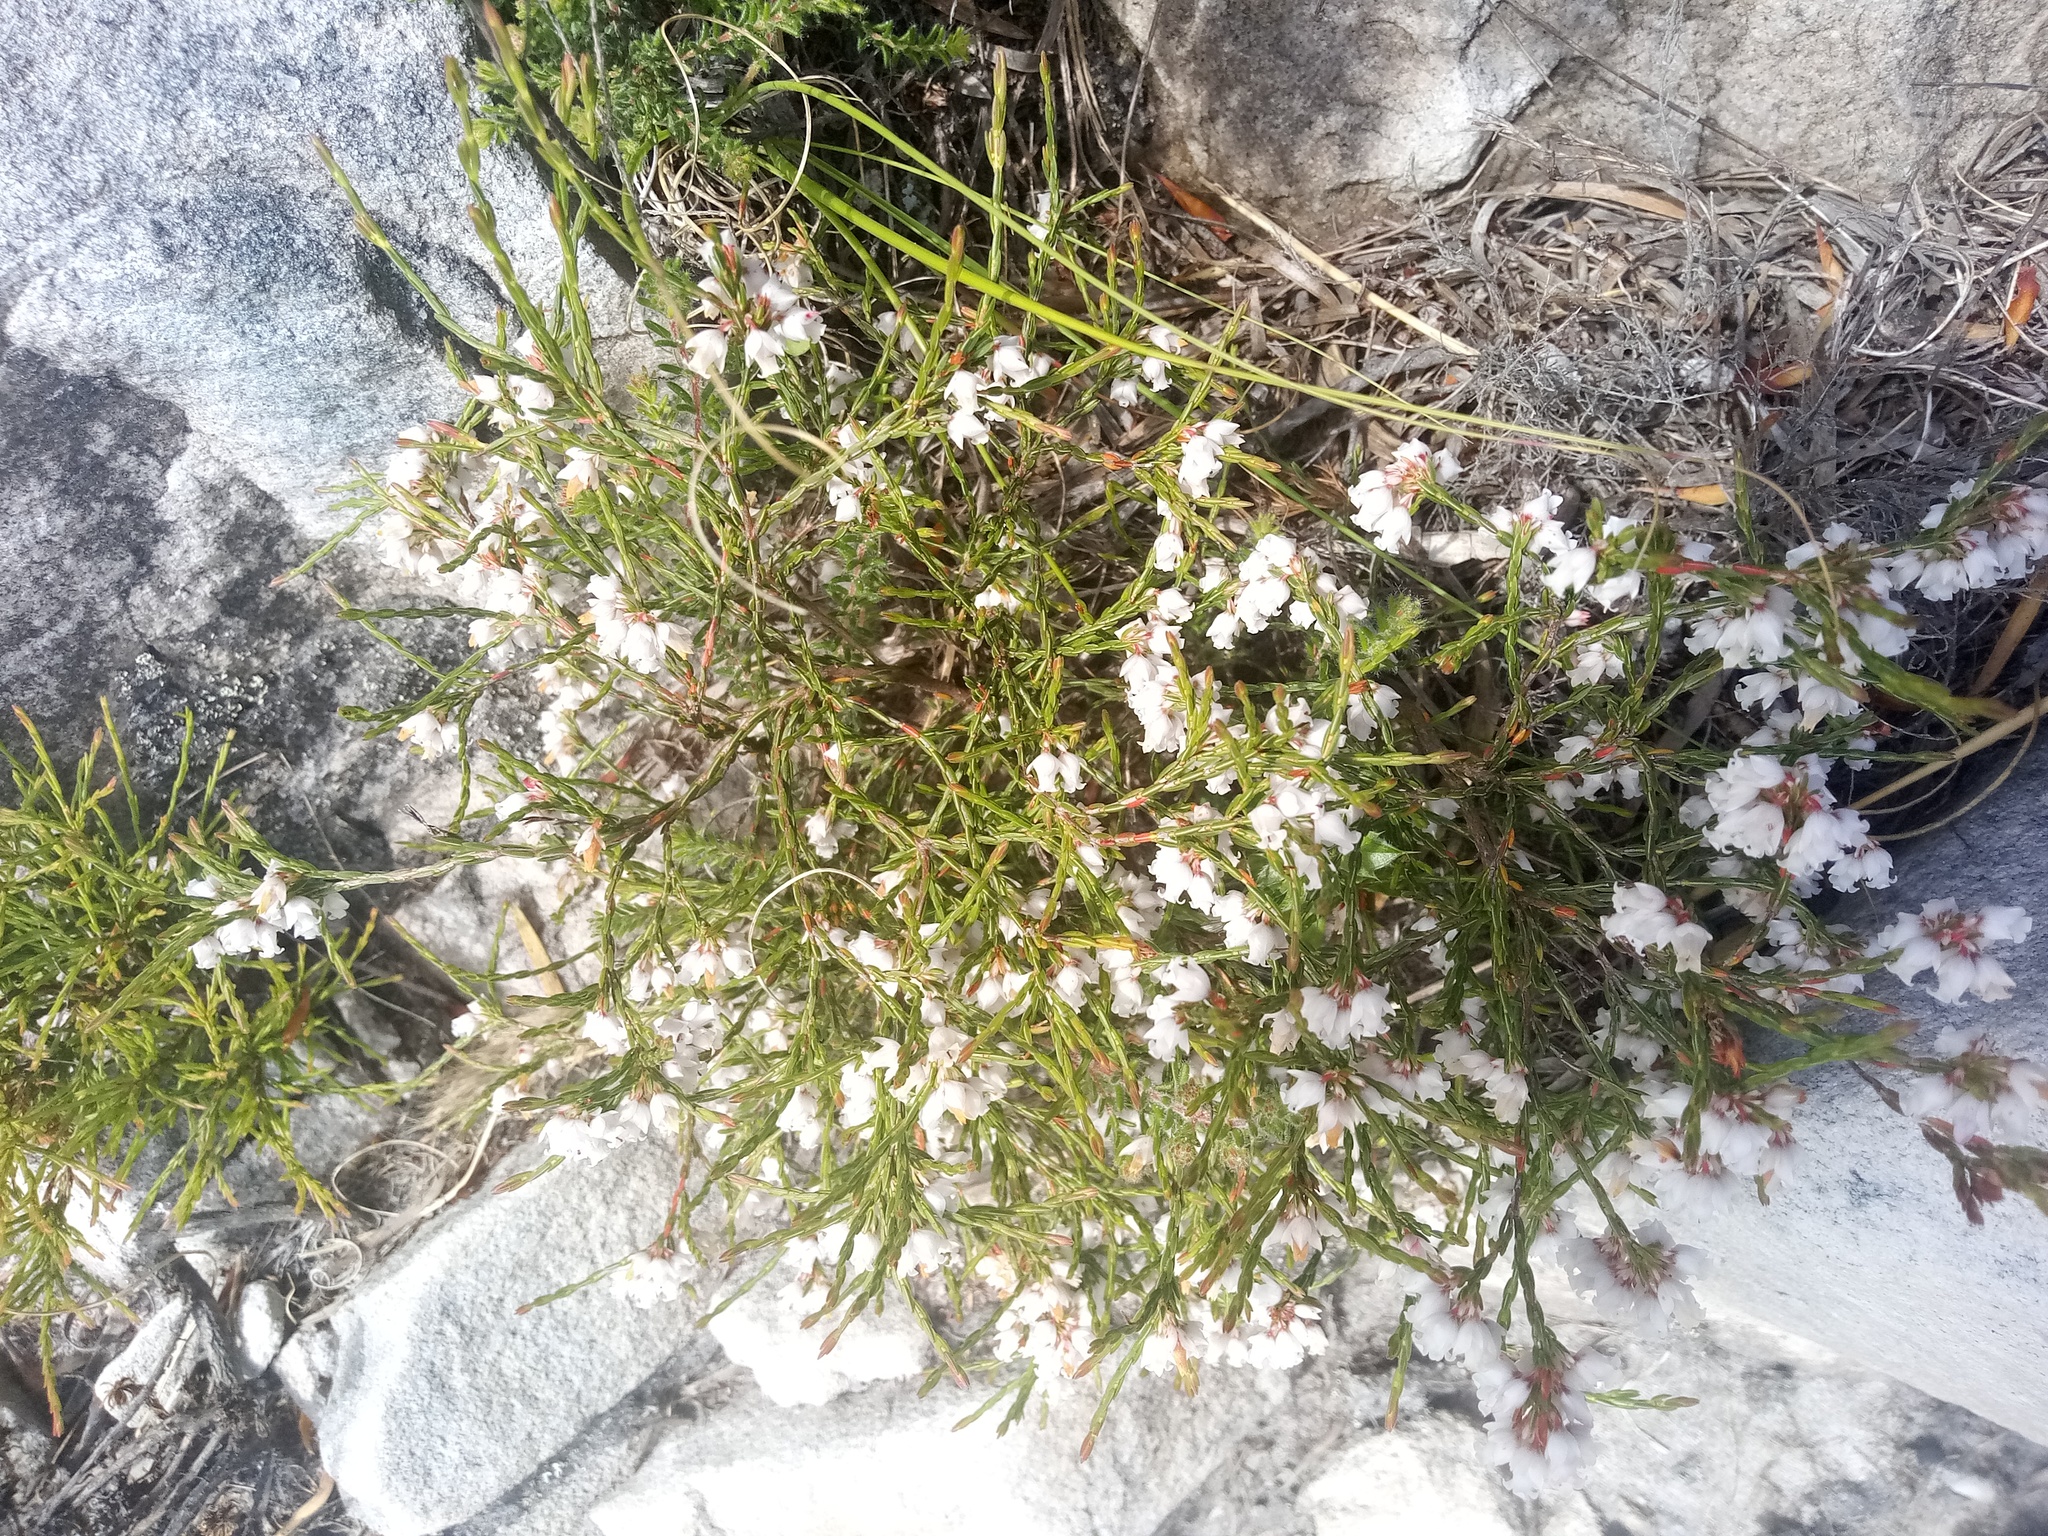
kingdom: Plantae
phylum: Tracheophyta
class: Magnoliopsida
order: Ericales
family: Ericaceae
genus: Erica
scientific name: Erica tenuifolia
